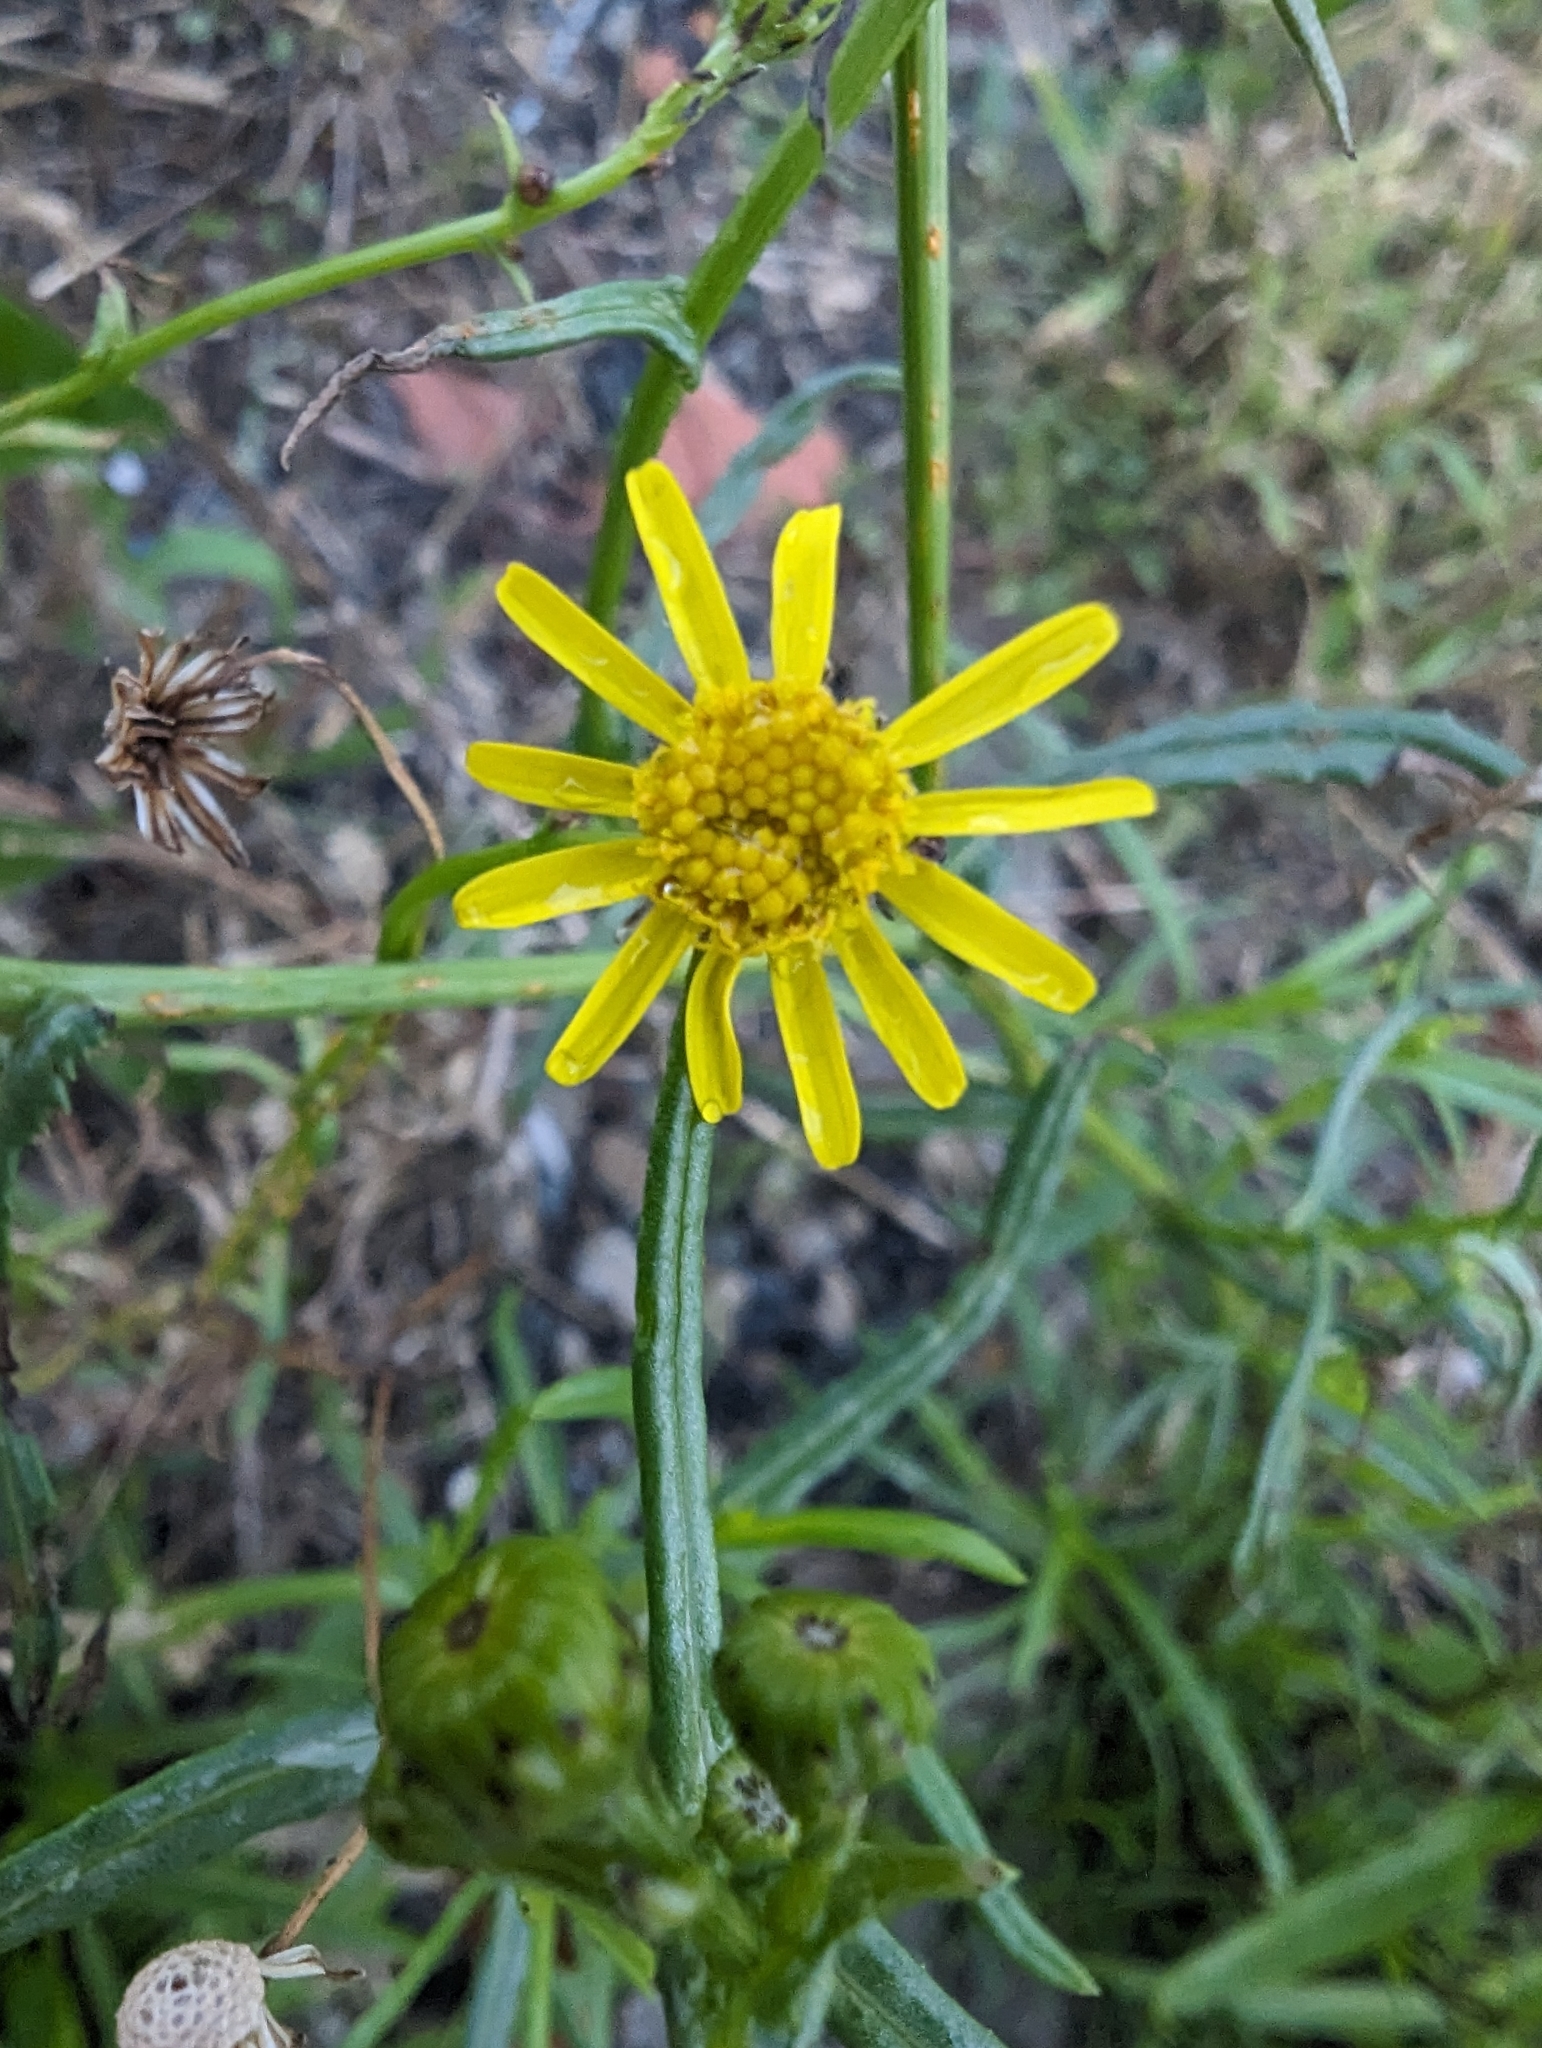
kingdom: Plantae
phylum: Tracheophyta
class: Magnoliopsida
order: Asterales
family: Asteraceae
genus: Senecio
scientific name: Senecio inaequidens
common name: Narrow-leaved ragwort
